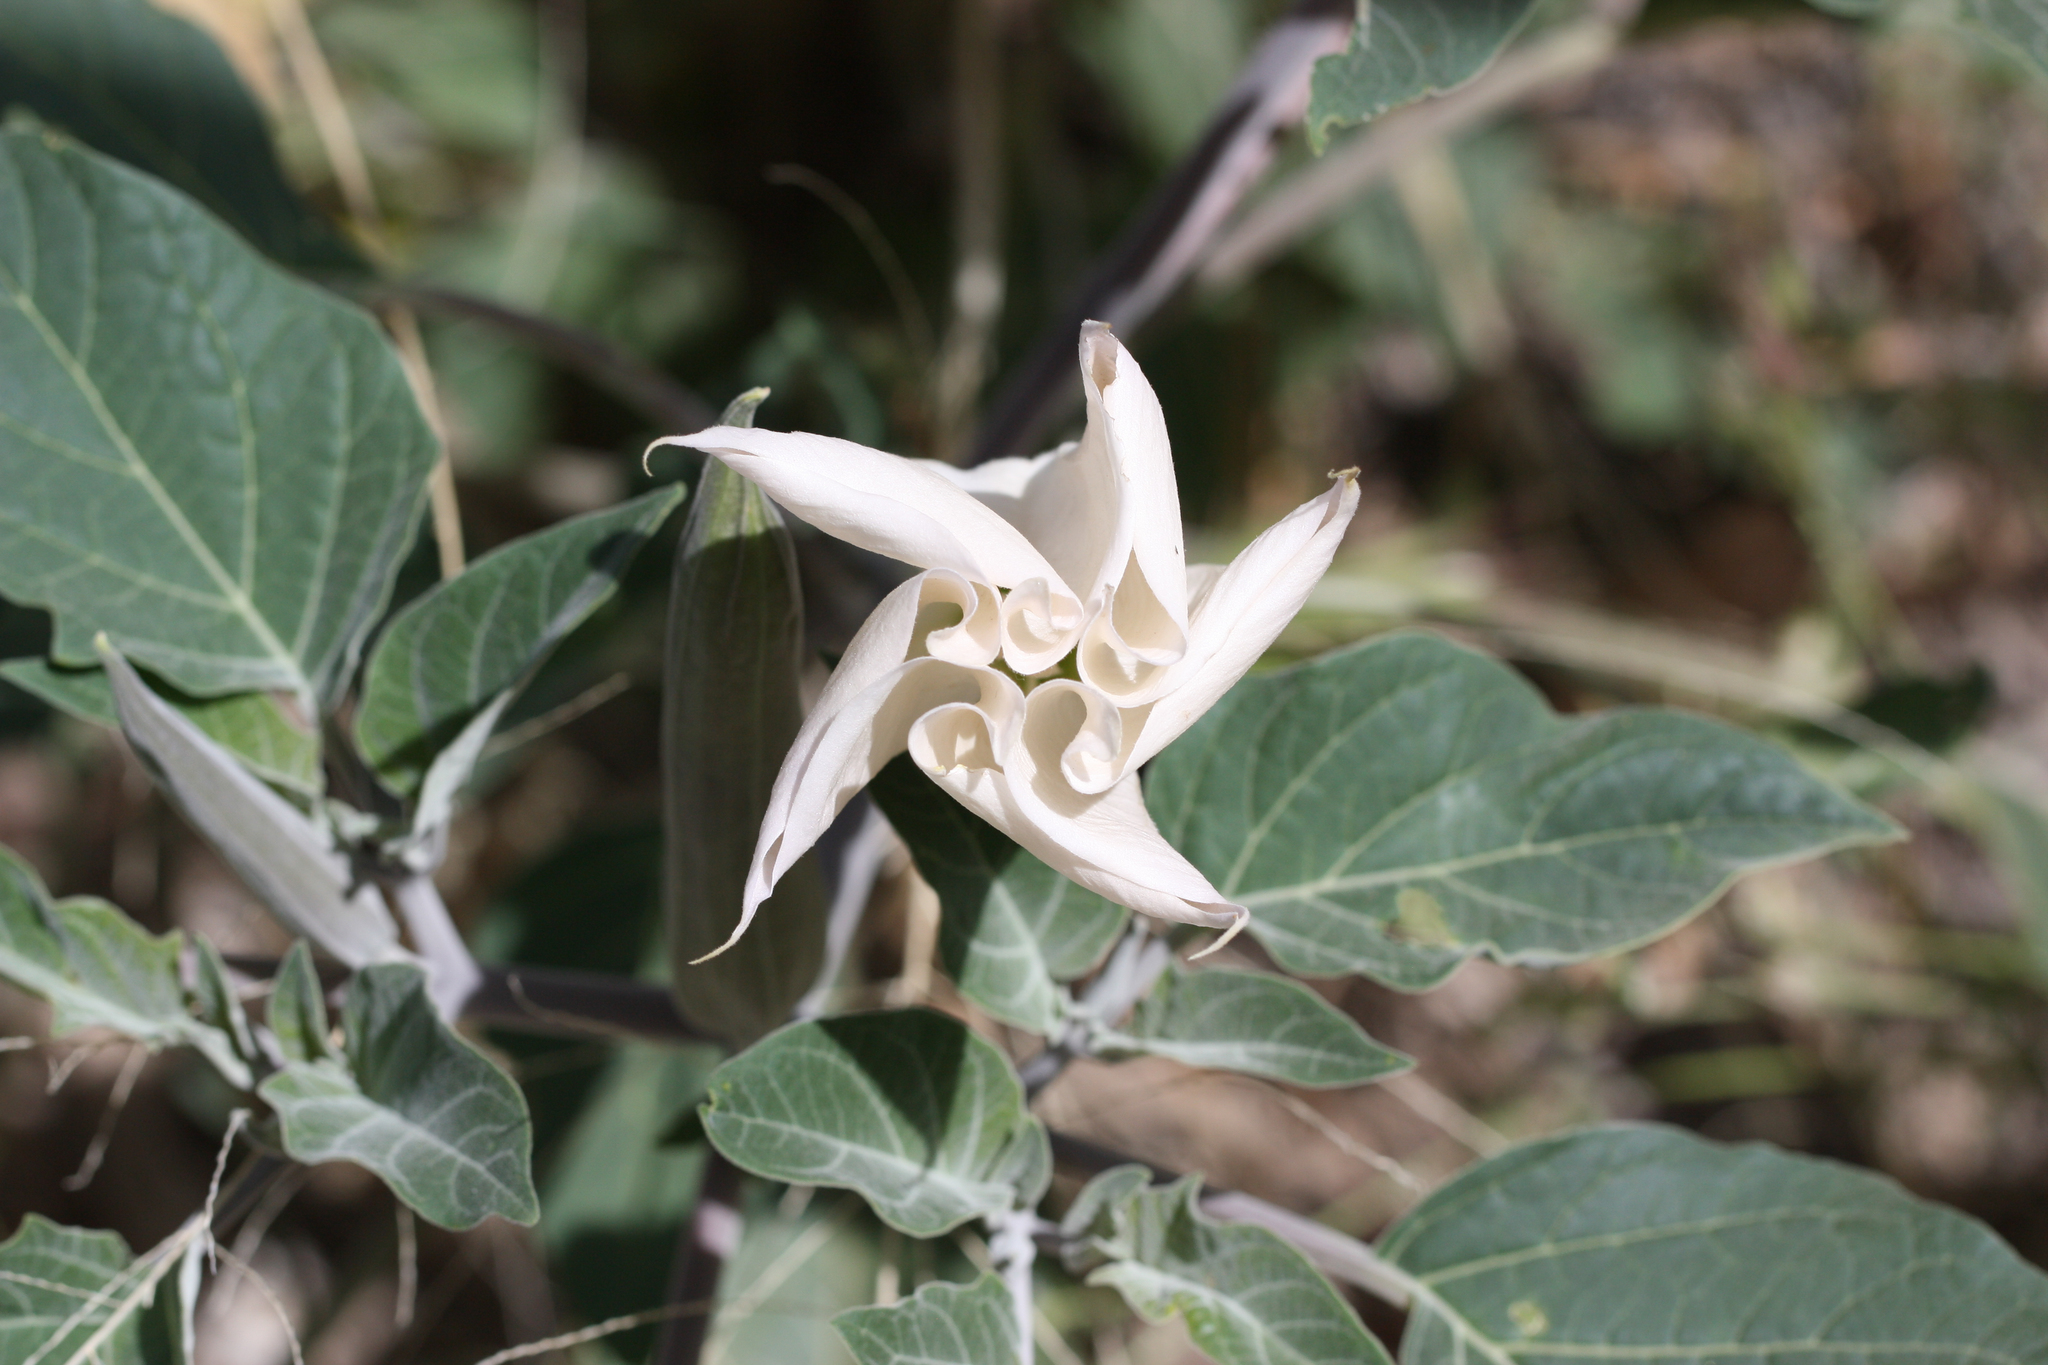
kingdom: Plantae
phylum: Tracheophyta
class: Magnoliopsida
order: Solanales
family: Solanaceae
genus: Datura
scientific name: Datura wrightii
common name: Sacred thorn-apple
